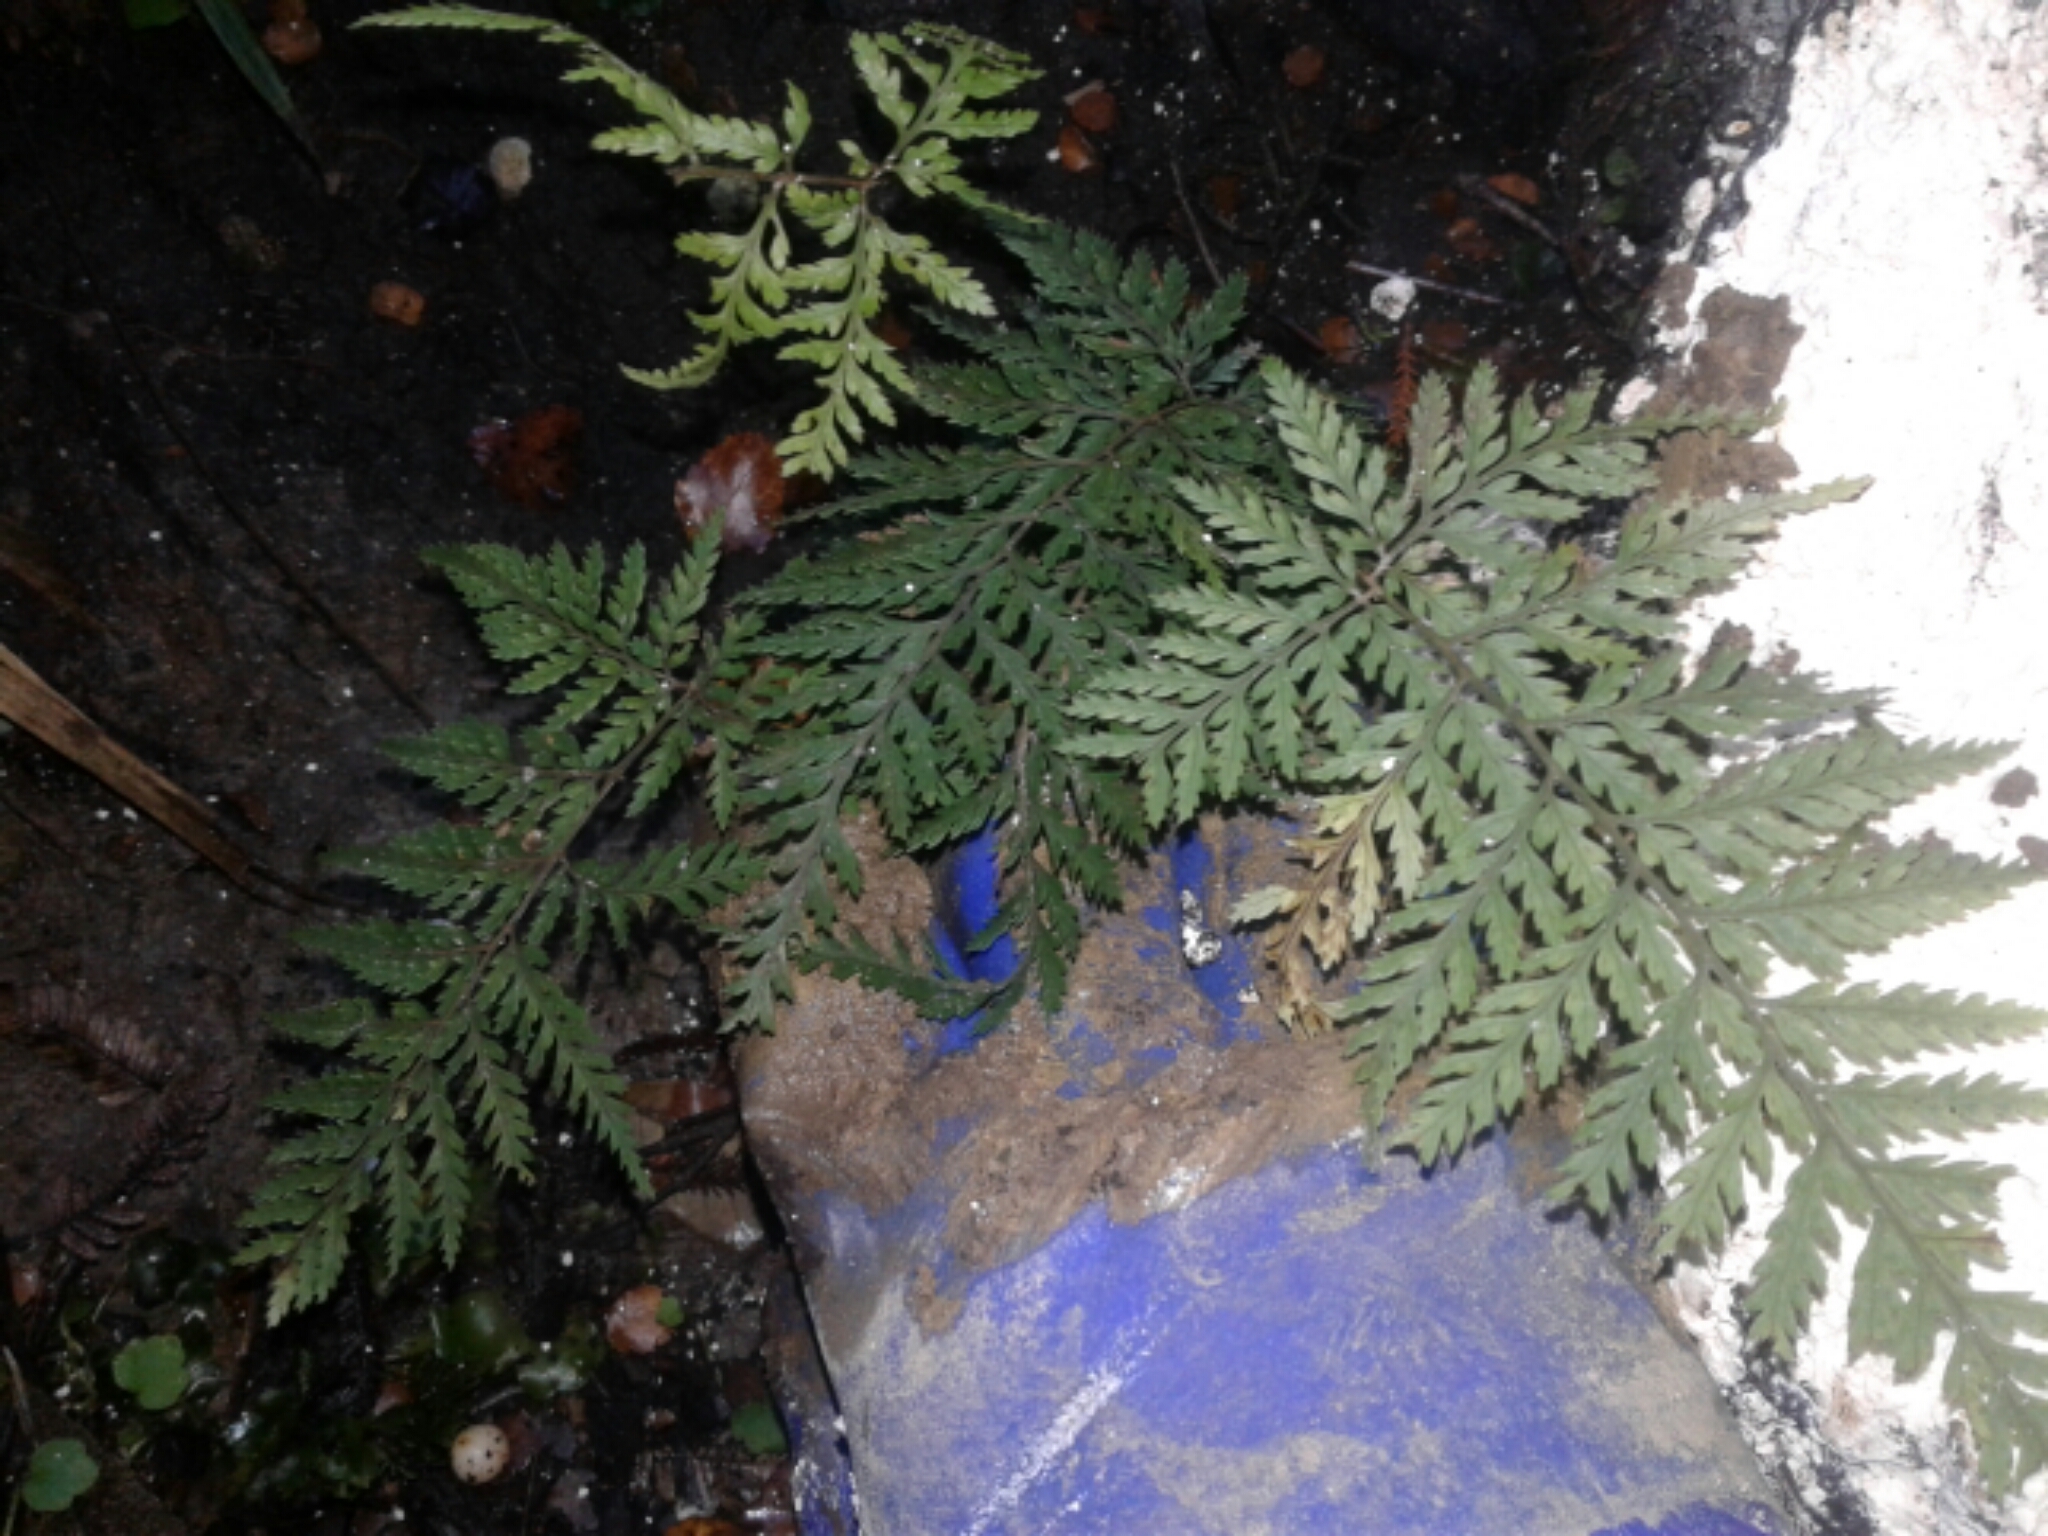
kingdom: Plantae
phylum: Tracheophyta
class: Polypodiopsida
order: Polypodiales
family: Dryopteridaceae
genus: Parapolystichum
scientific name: Parapolystichum glabellum
